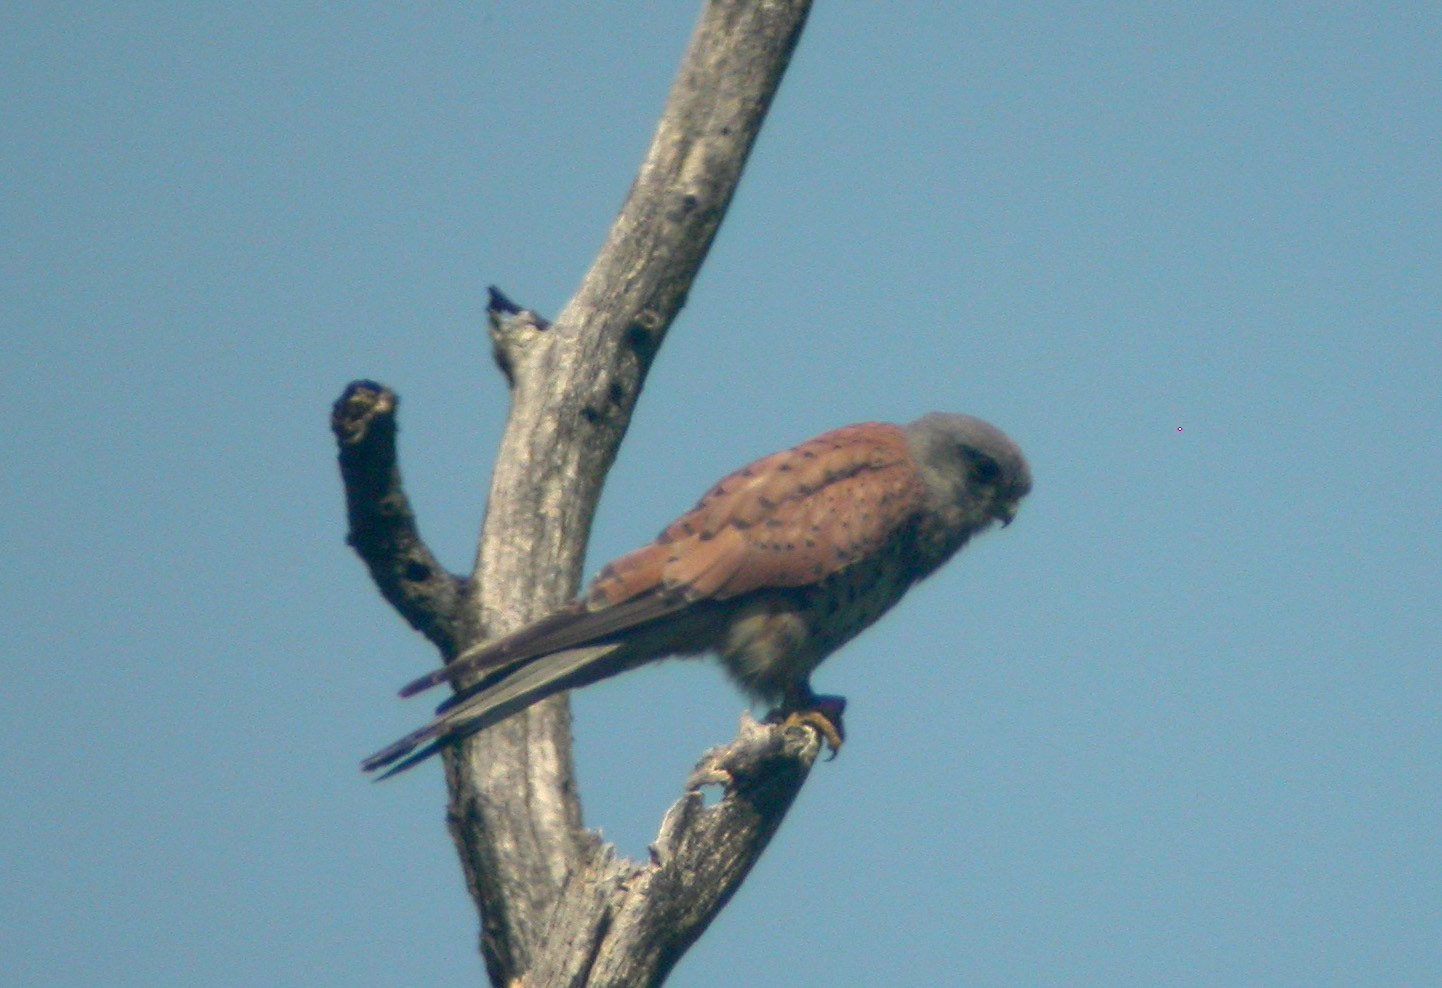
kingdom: Animalia
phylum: Chordata
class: Aves
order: Falconiformes
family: Falconidae
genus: Falco
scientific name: Falco tinnunculus
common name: Common kestrel
